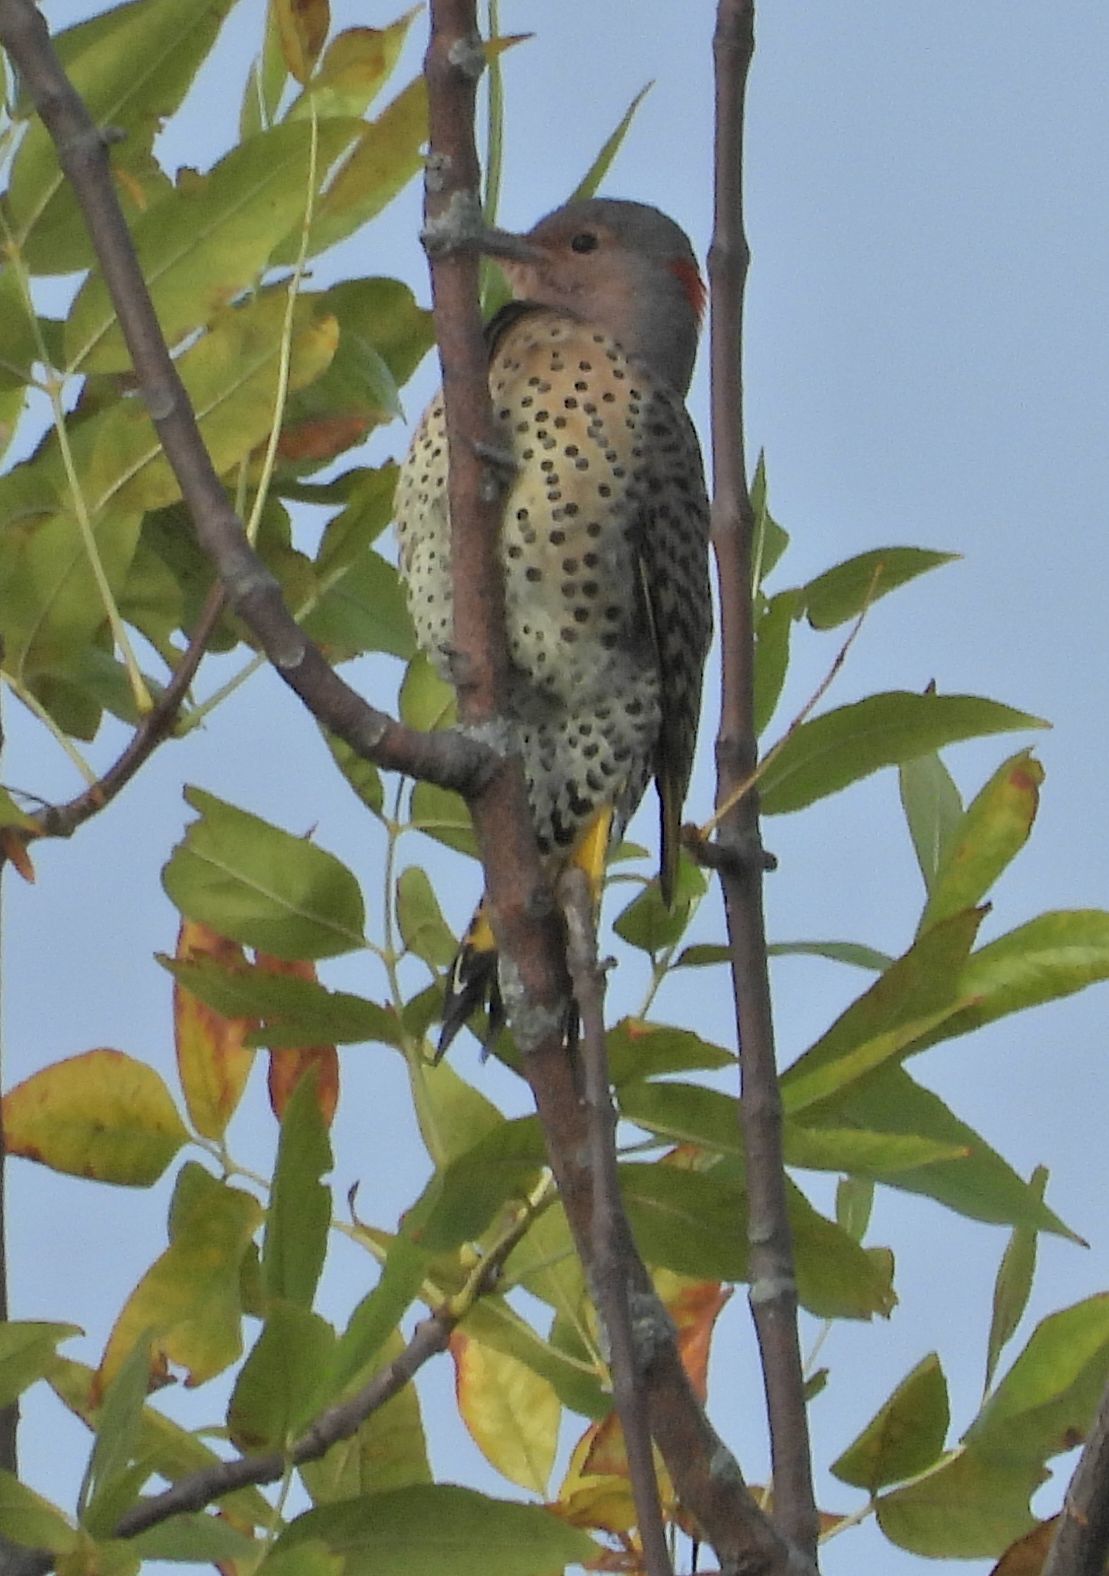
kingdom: Animalia
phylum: Chordata
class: Aves
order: Piciformes
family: Picidae
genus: Colaptes
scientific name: Colaptes auratus
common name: Northern flicker
